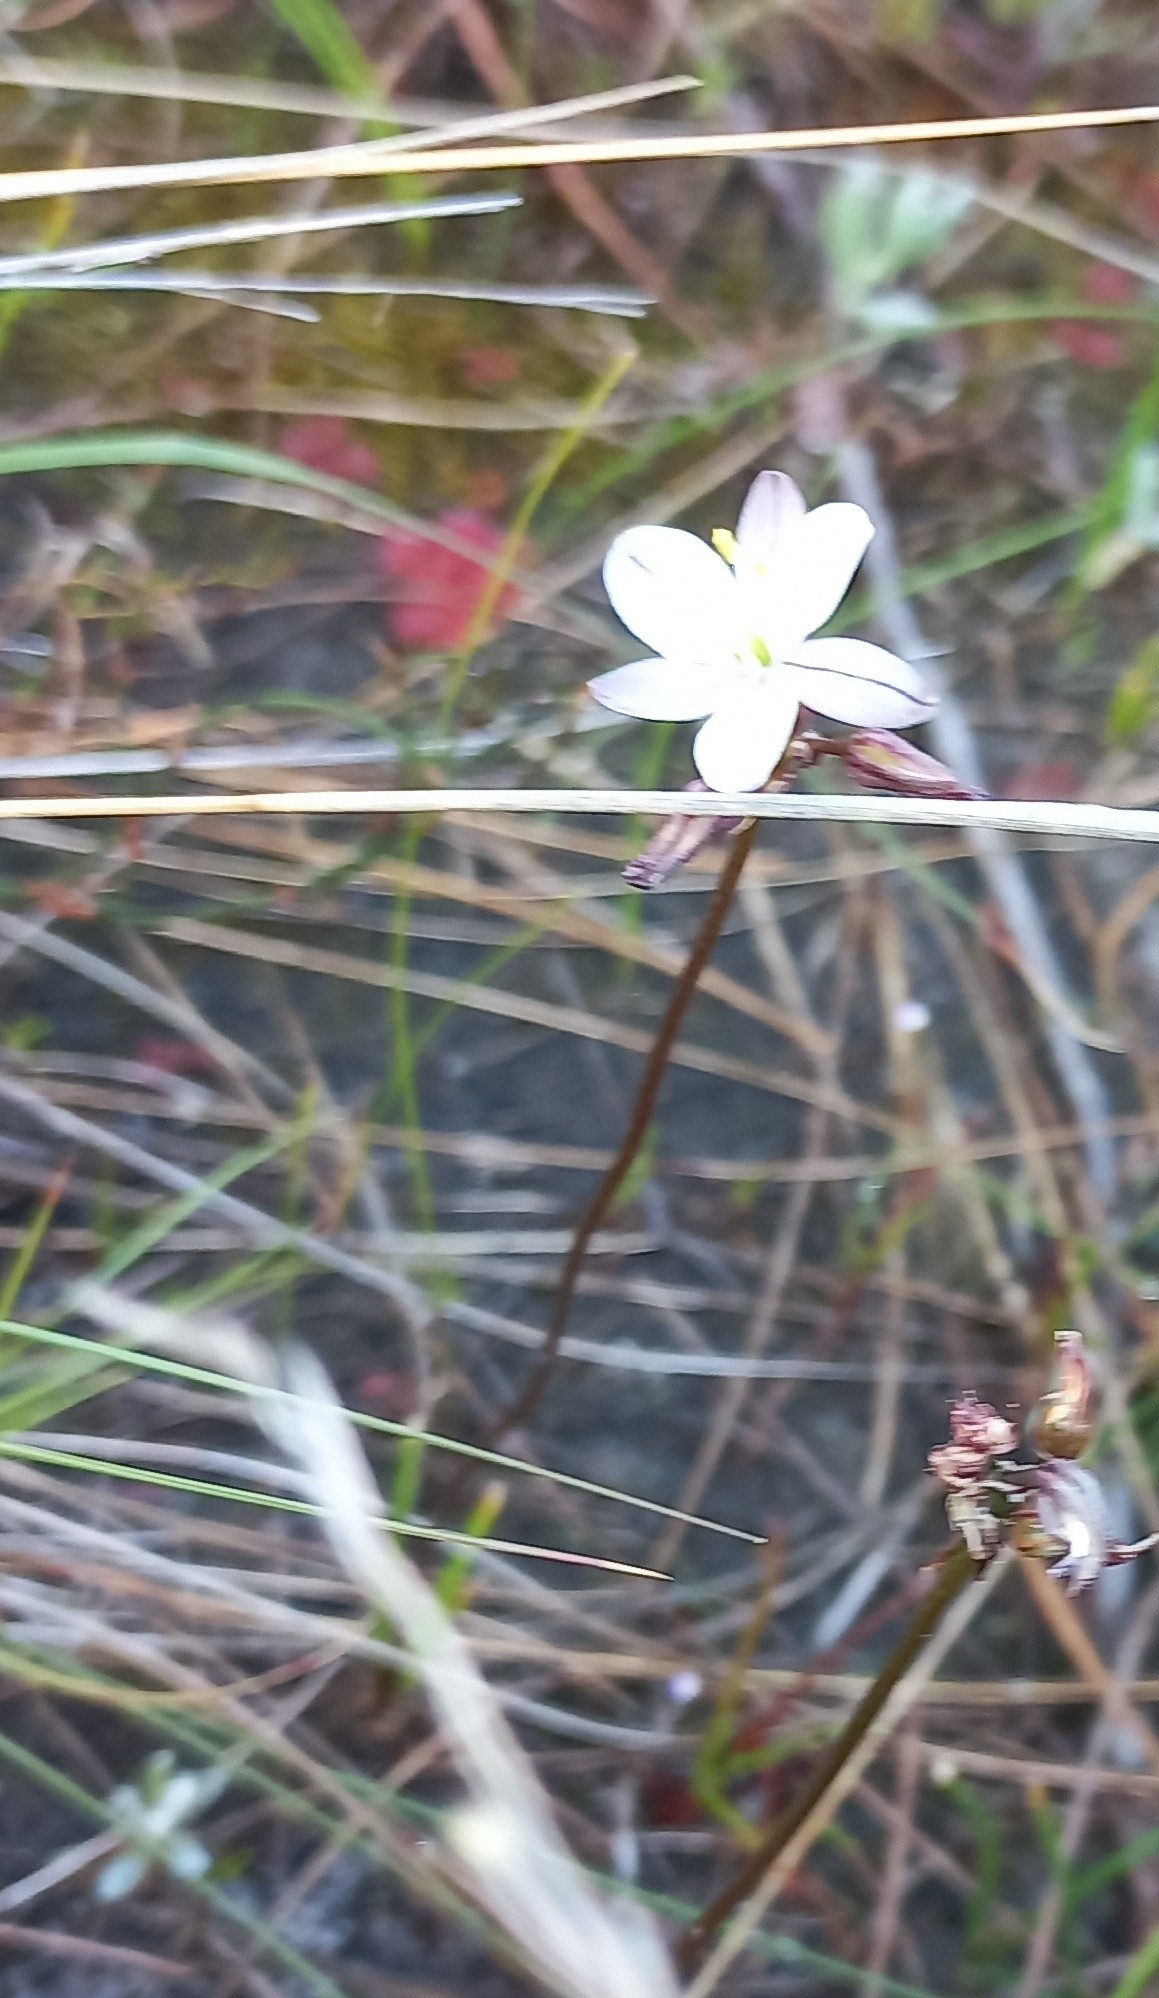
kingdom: Plantae
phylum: Tracheophyta
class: Liliopsida
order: Asparagales
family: Asparagaceae
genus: Drimia
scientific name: Drimia exuviata
